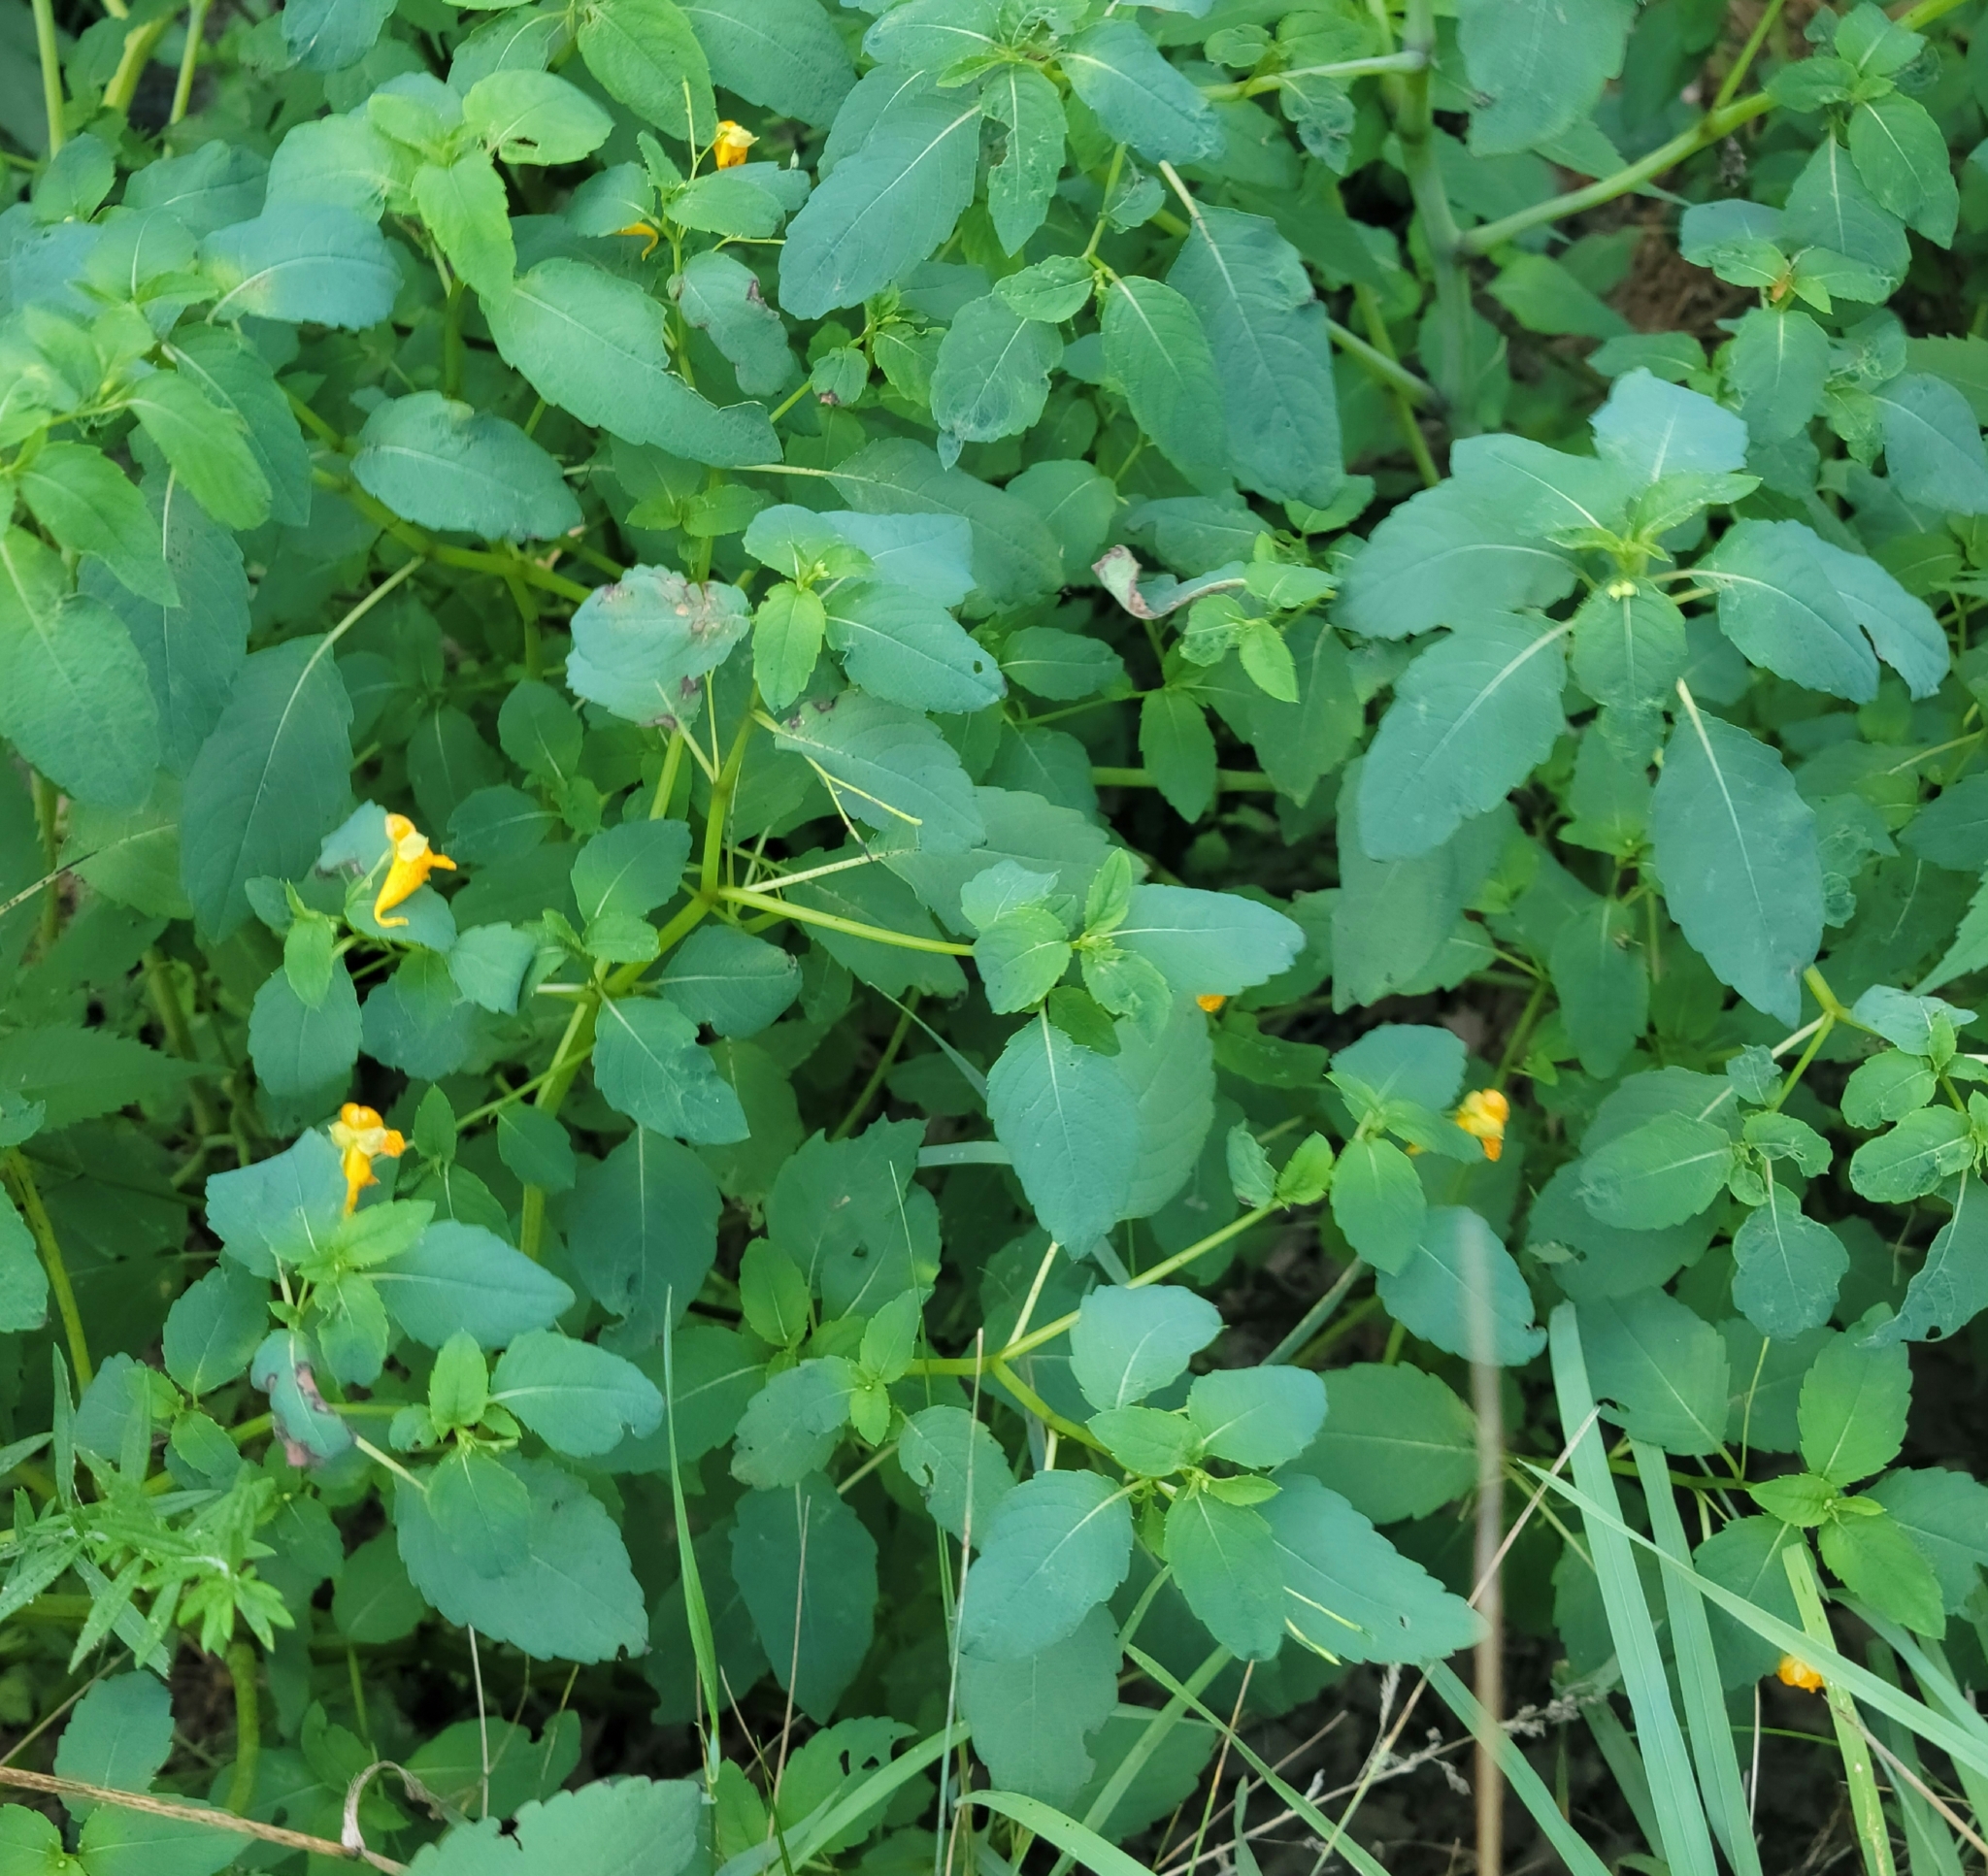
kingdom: Plantae
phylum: Tracheophyta
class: Magnoliopsida
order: Ericales
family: Balsaminaceae
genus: Impatiens
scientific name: Impatiens capensis
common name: Orange balsam
